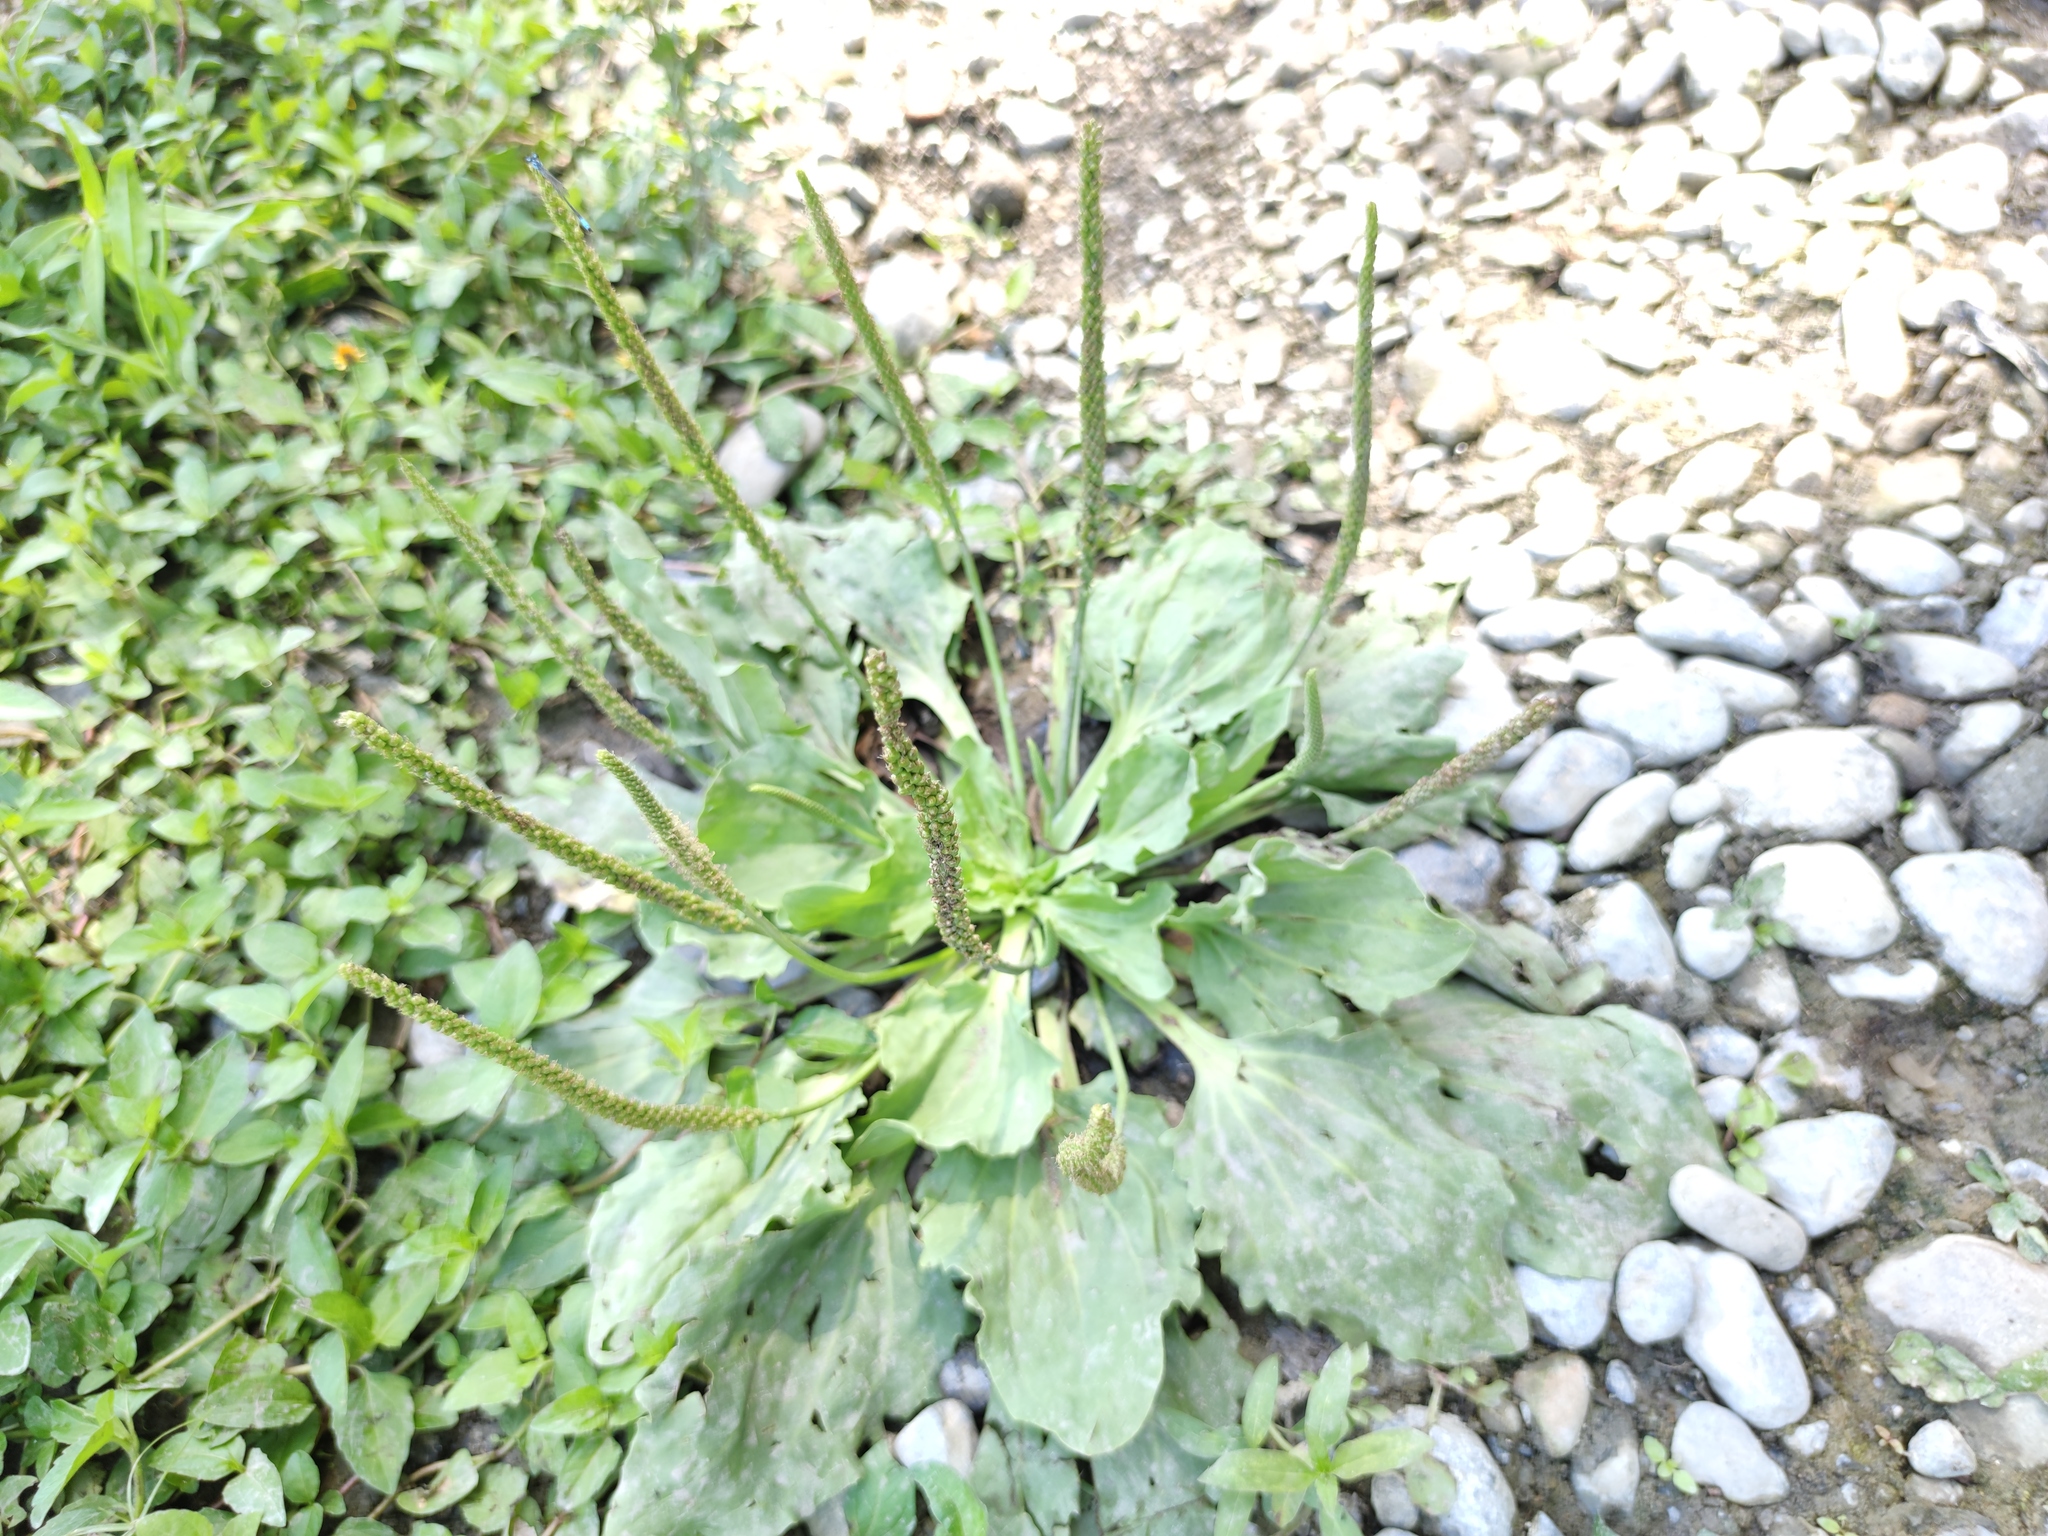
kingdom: Plantae
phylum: Tracheophyta
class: Magnoliopsida
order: Lamiales
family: Plantaginaceae
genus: Plantago
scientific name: Plantago major
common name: Common plantain
